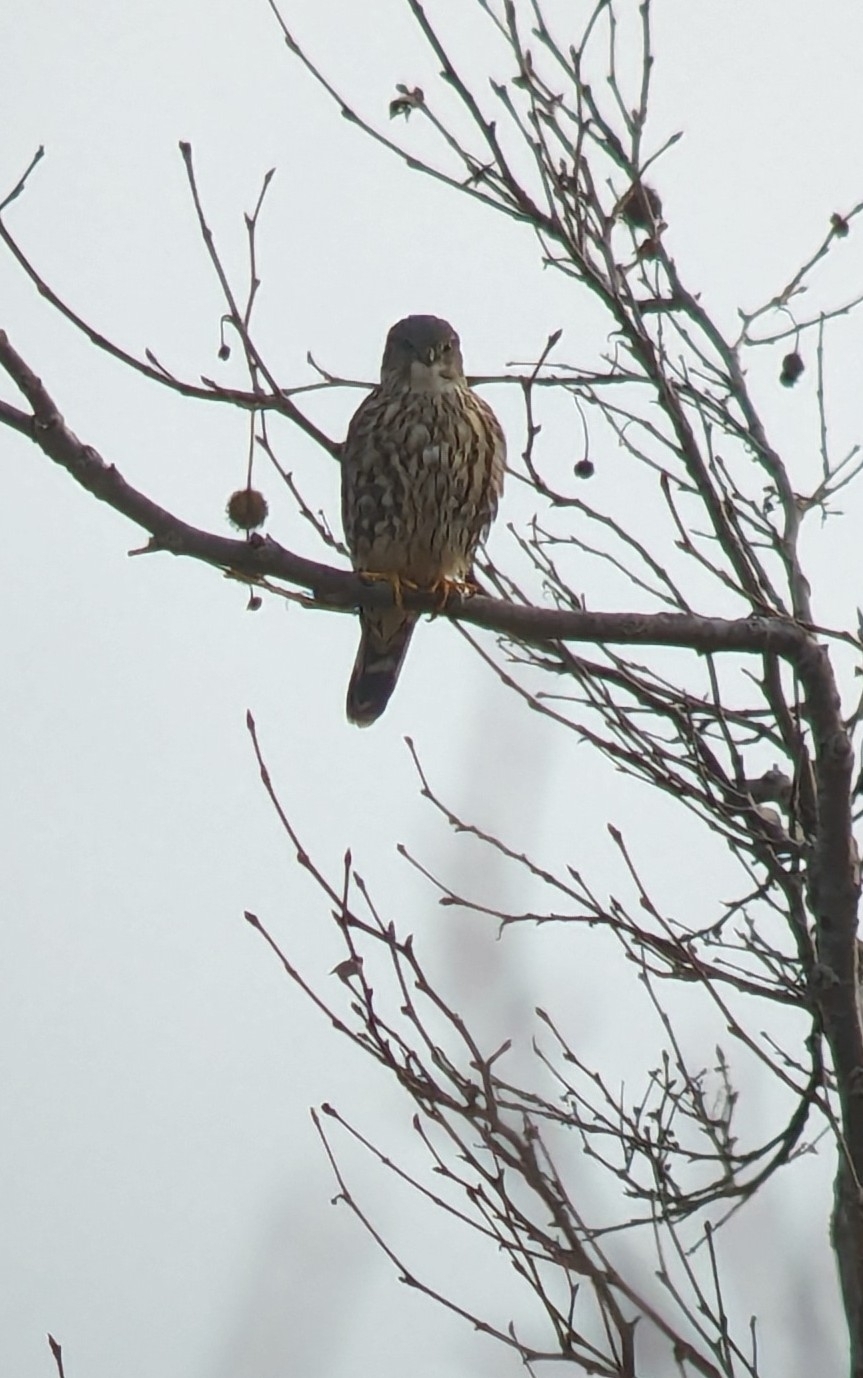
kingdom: Animalia
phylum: Chordata
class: Aves
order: Falconiformes
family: Falconidae
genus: Falco
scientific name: Falco columbarius
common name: Merlin
